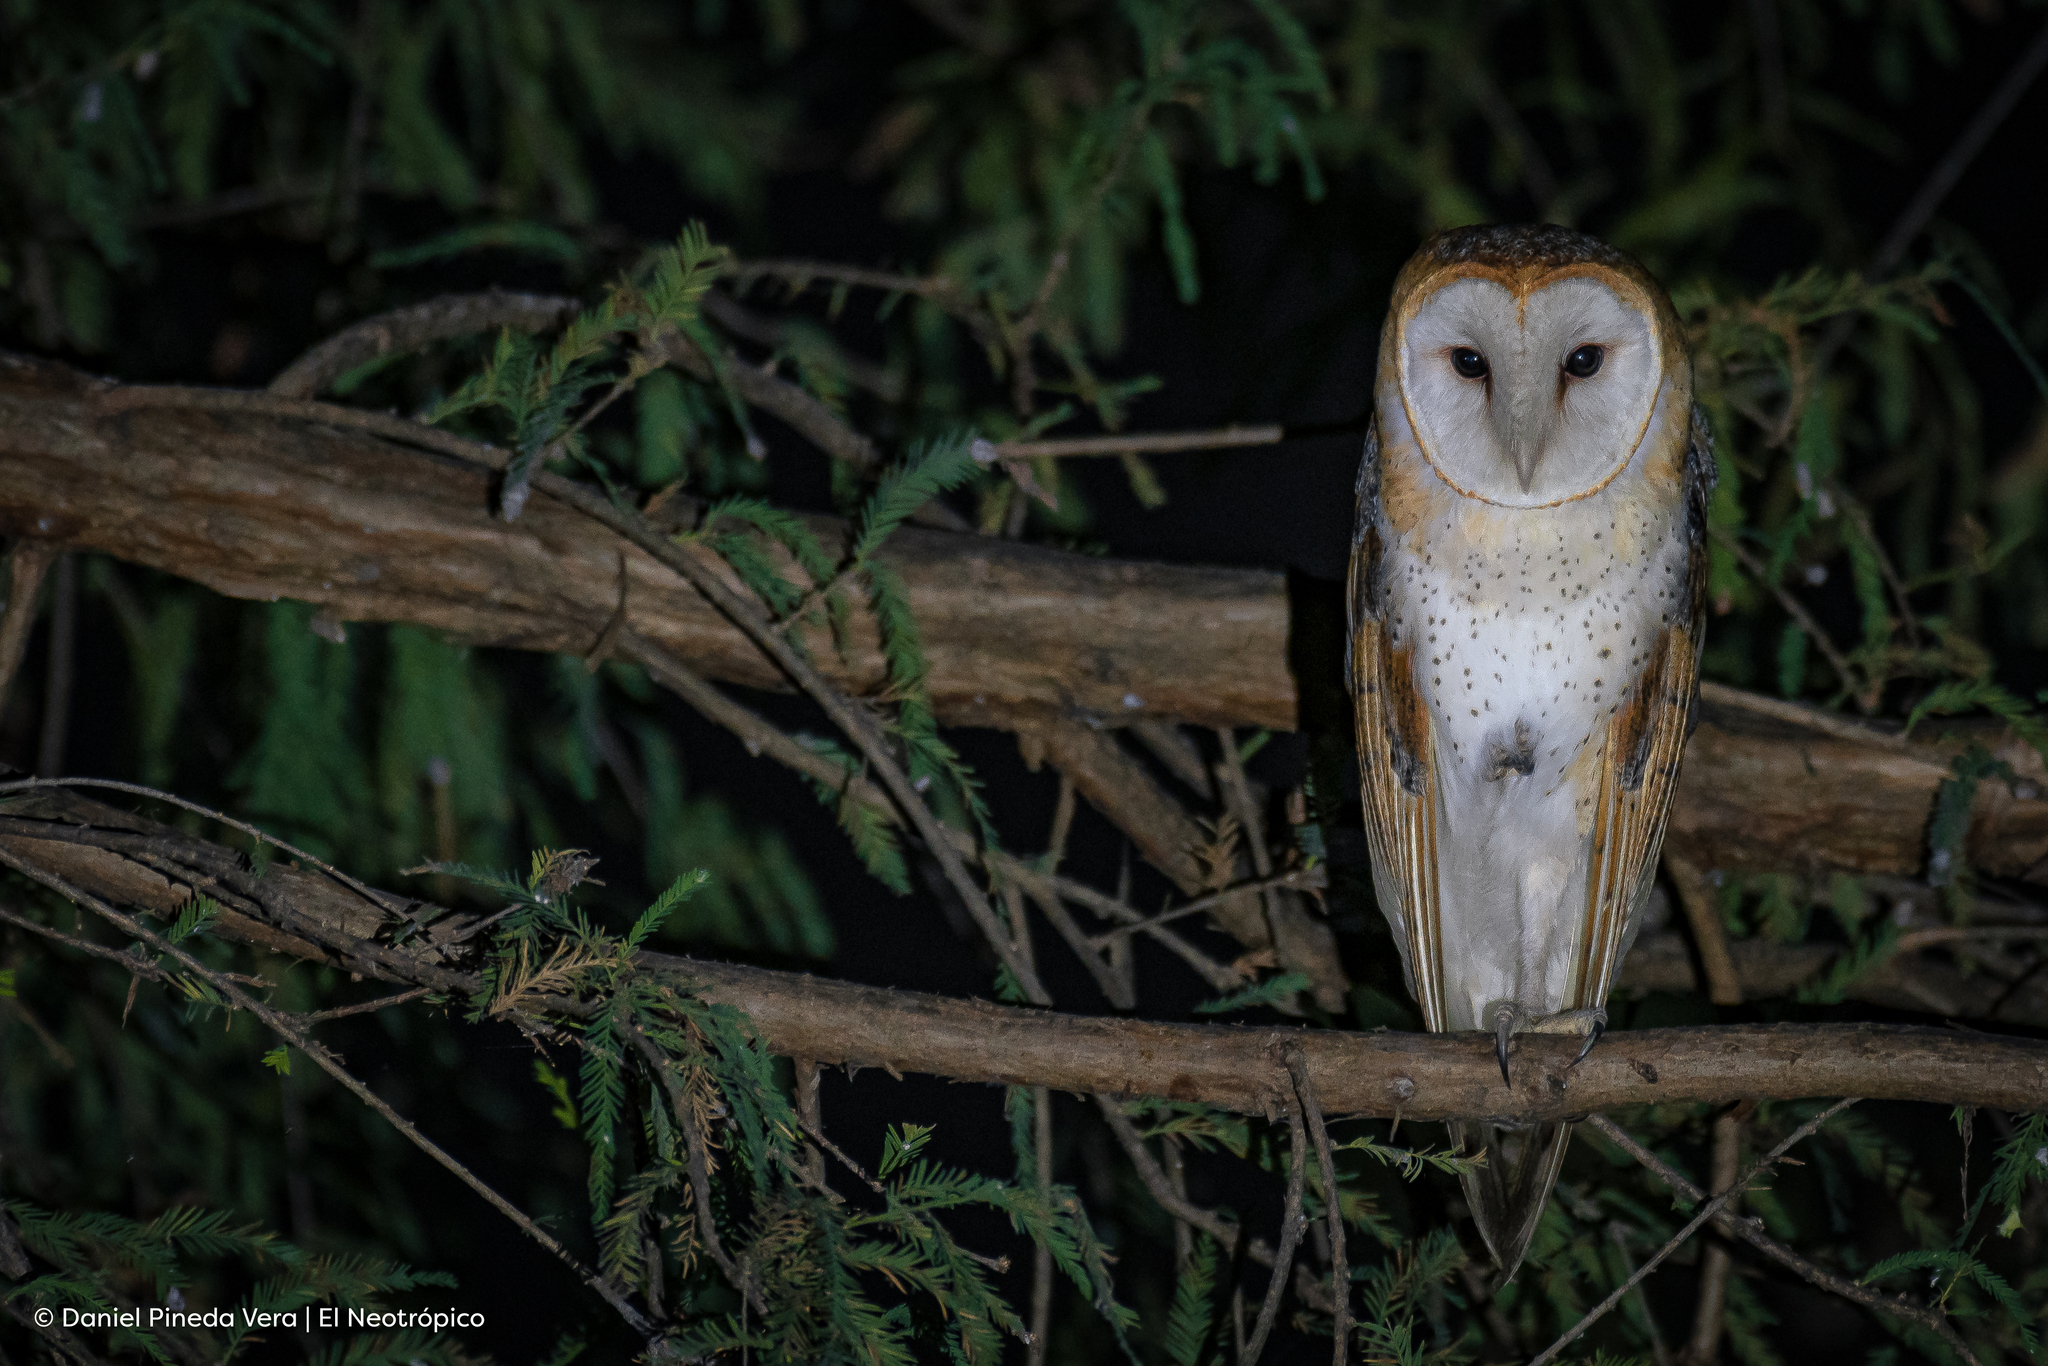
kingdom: Animalia
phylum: Chordata
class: Aves
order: Strigiformes
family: Tytonidae
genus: Tyto
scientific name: Tyto alba
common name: Barn owl
